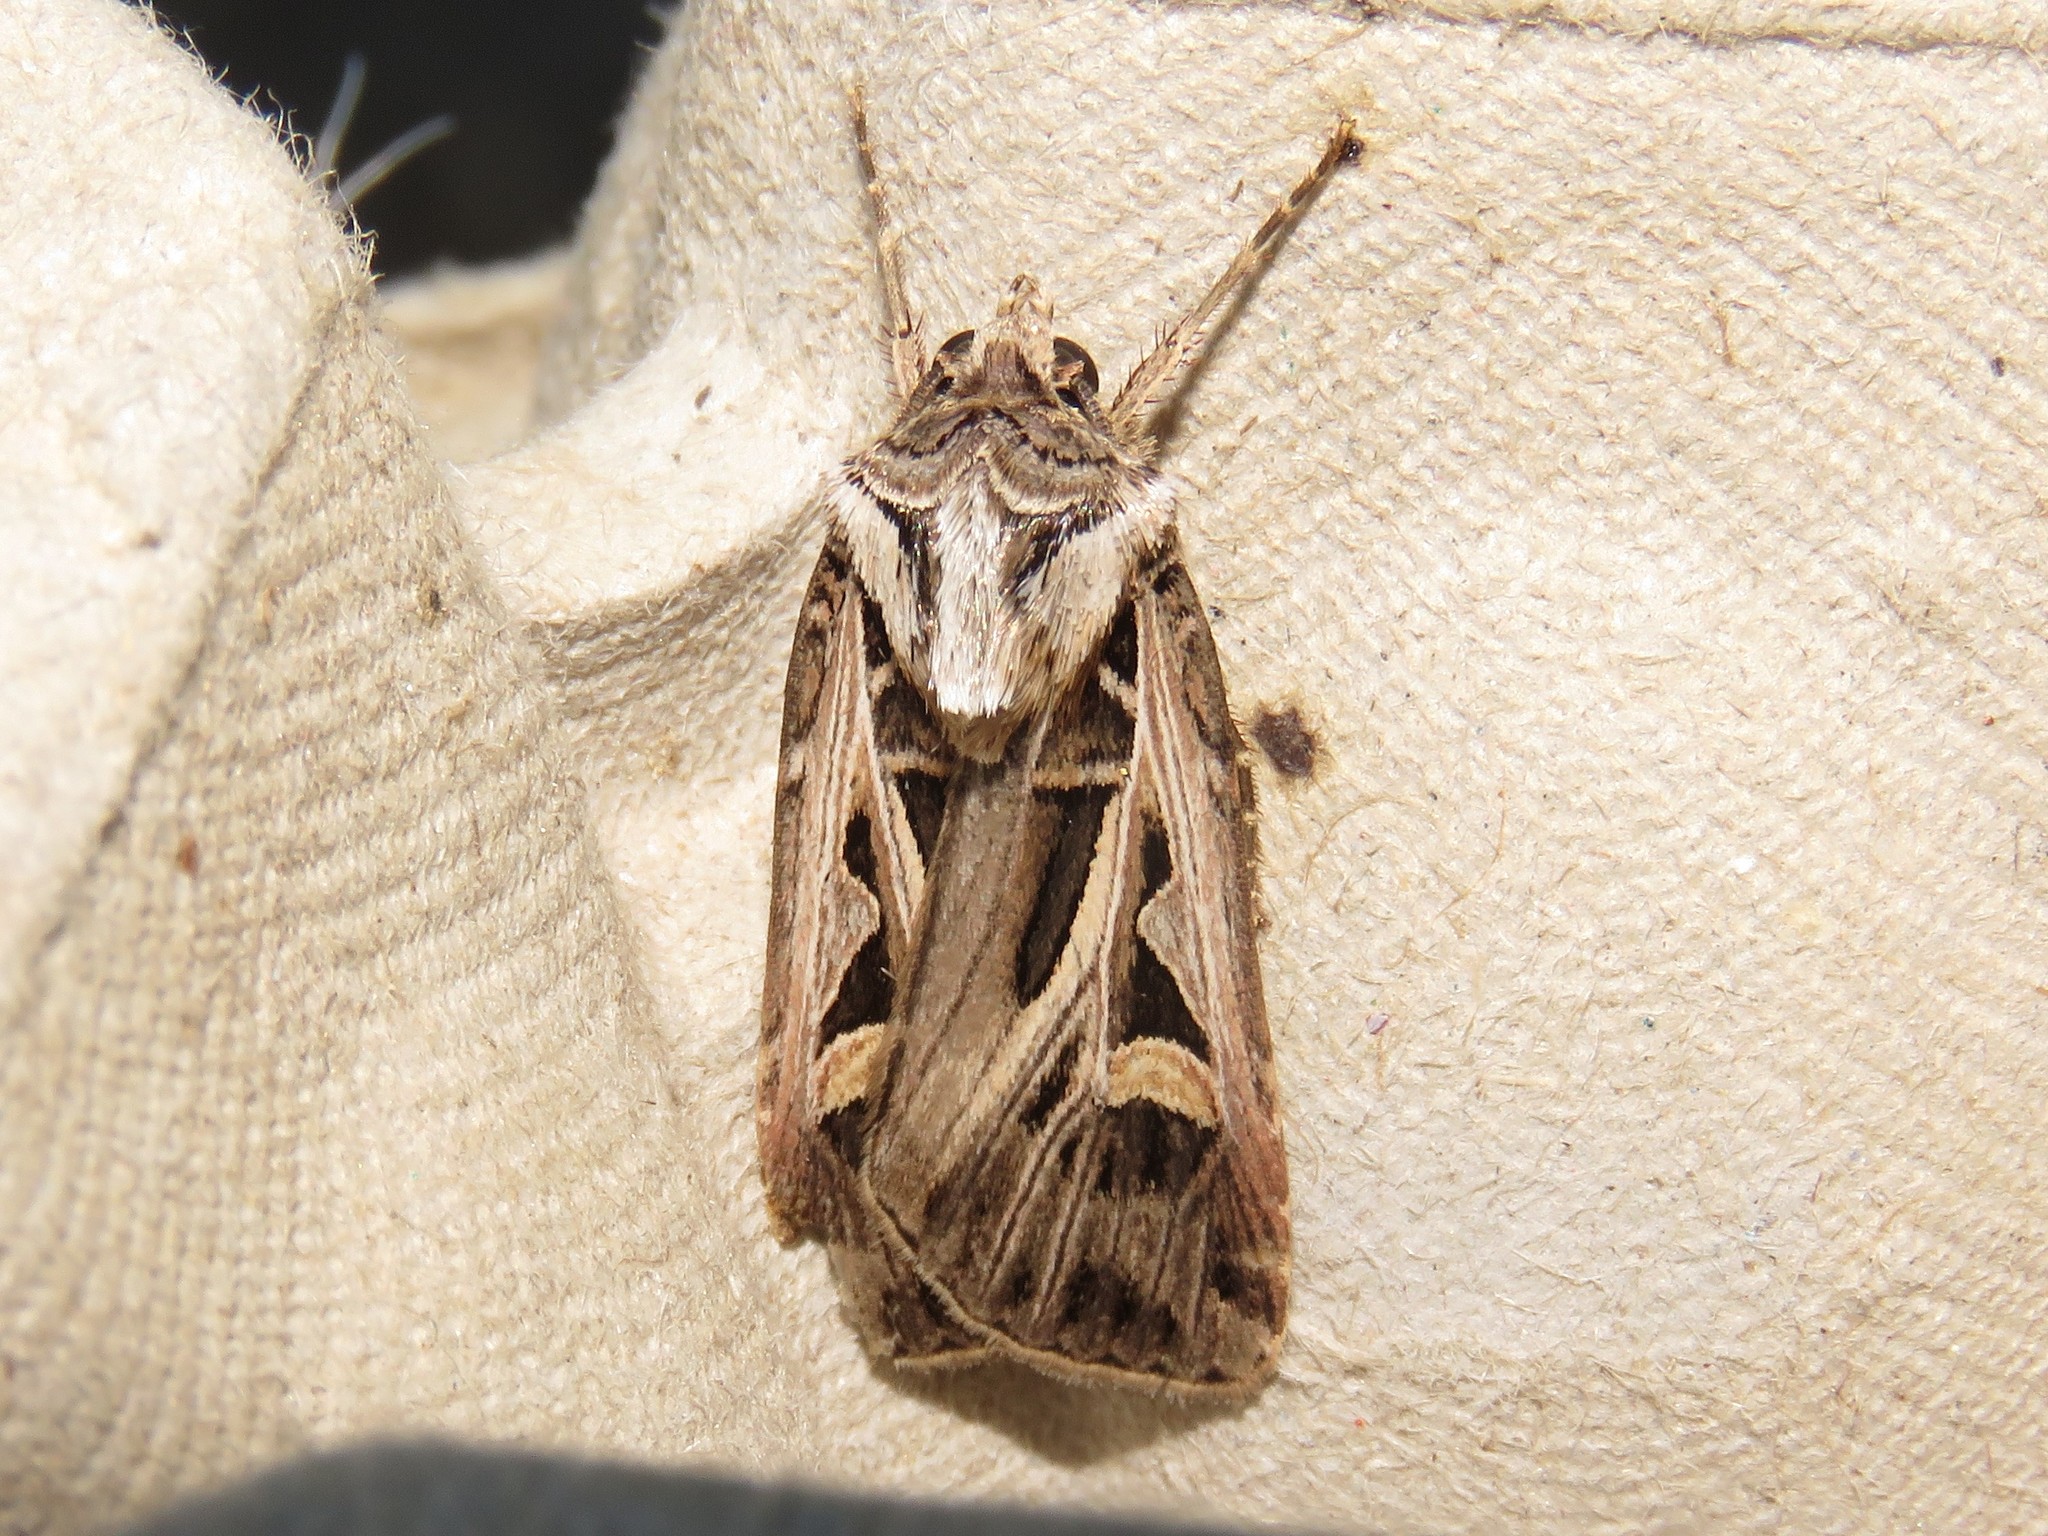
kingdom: Animalia
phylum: Arthropoda
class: Insecta
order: Lepidoptera
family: Noctuidae
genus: Feltia
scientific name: Feltia jaculifera
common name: Dingy cutworm moth
